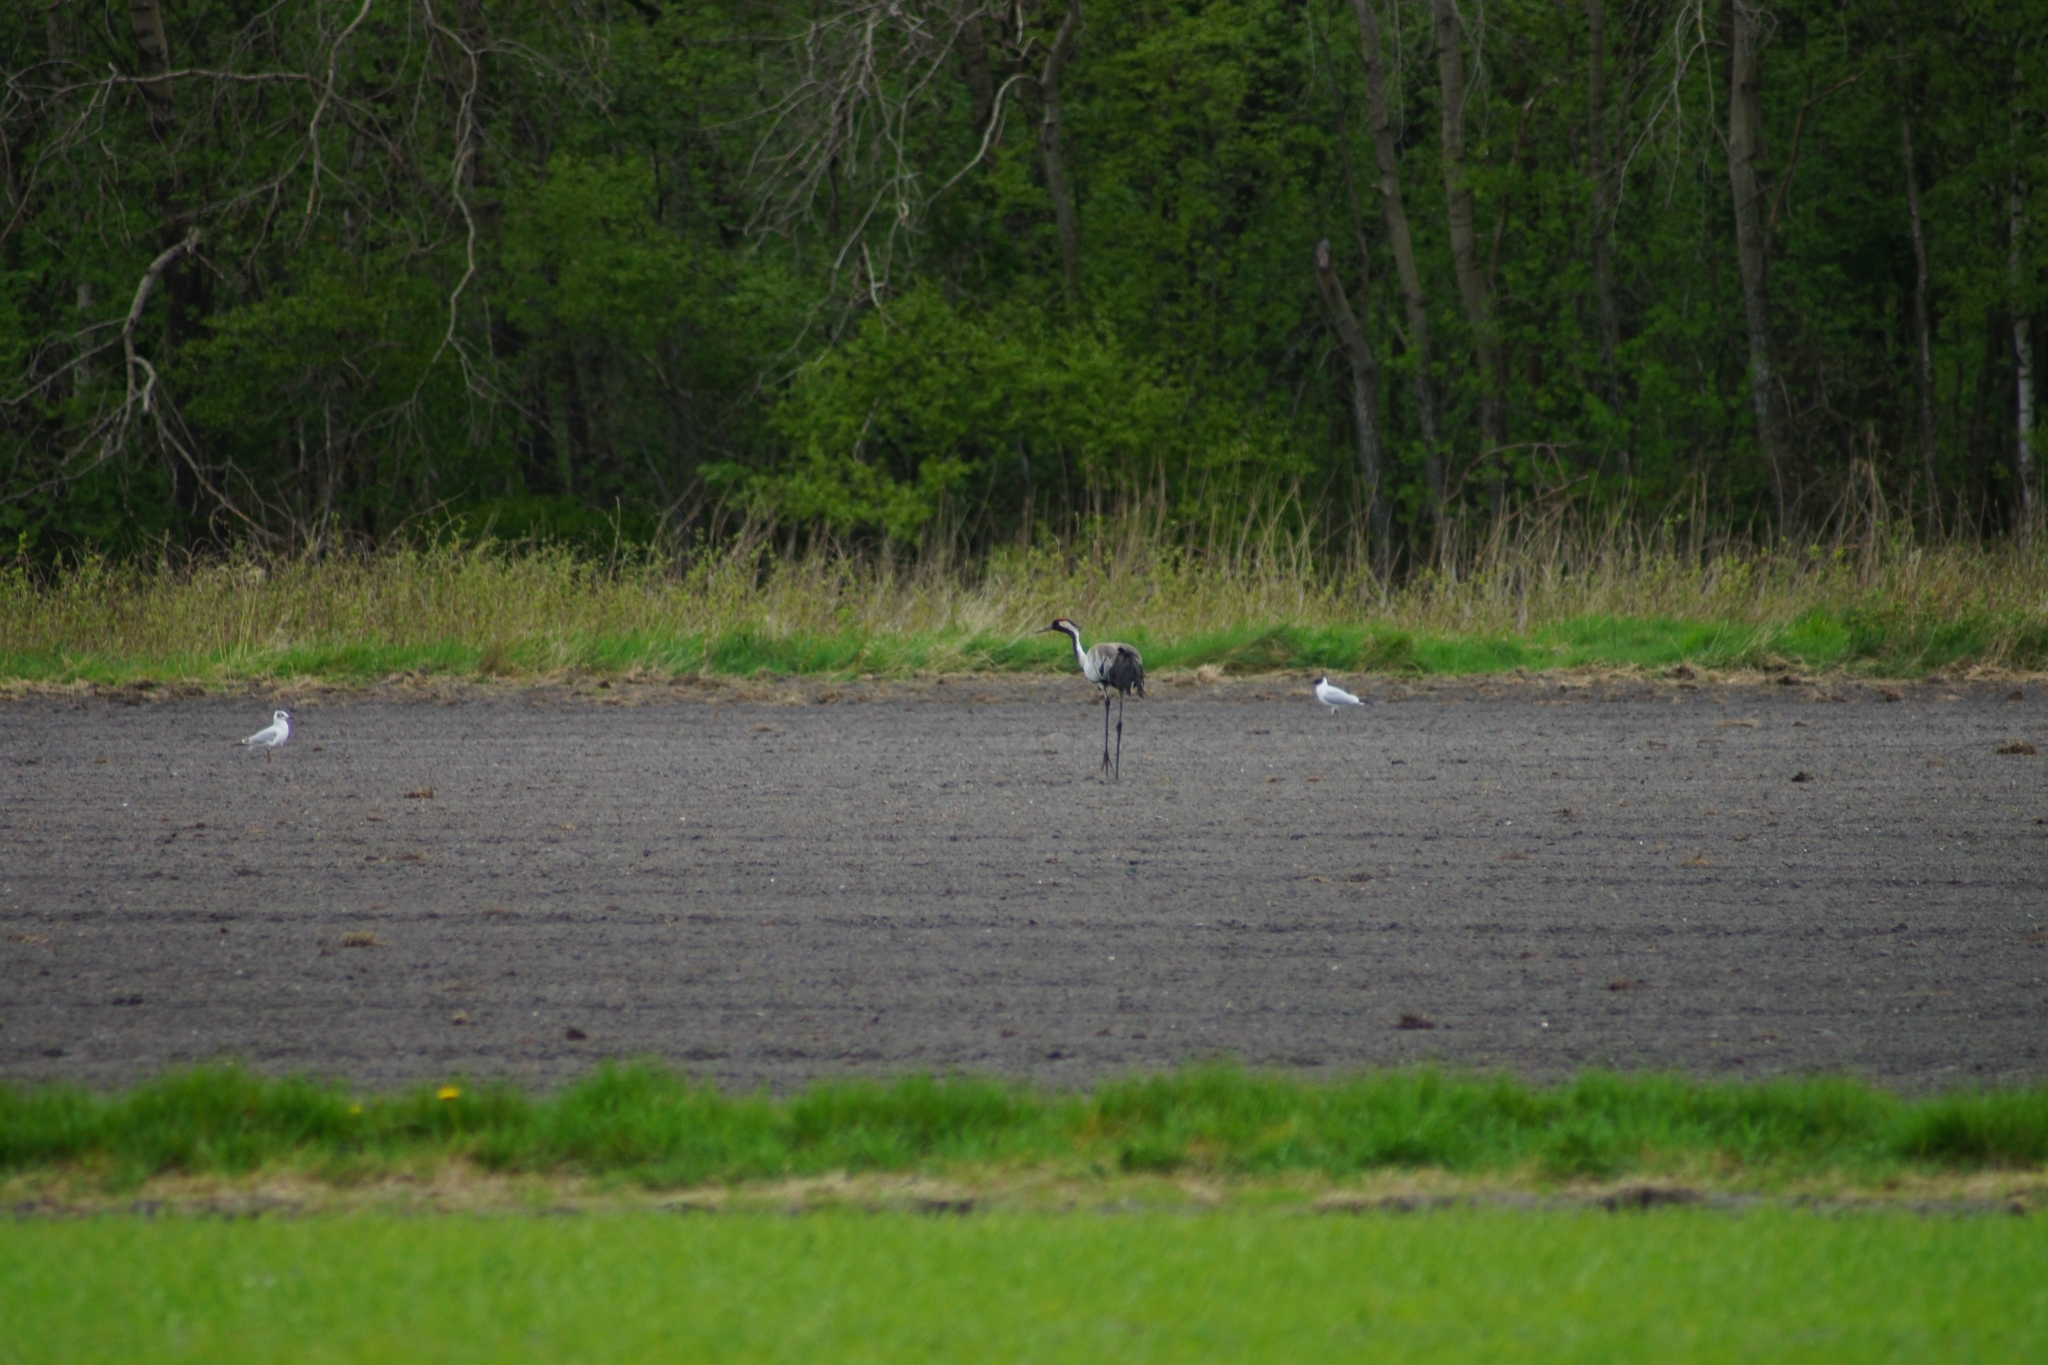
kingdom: Animalia
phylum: Chordata
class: Aves
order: Gruiformes
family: Gruidae
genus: Grus
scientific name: Grus grus
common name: Common crane
